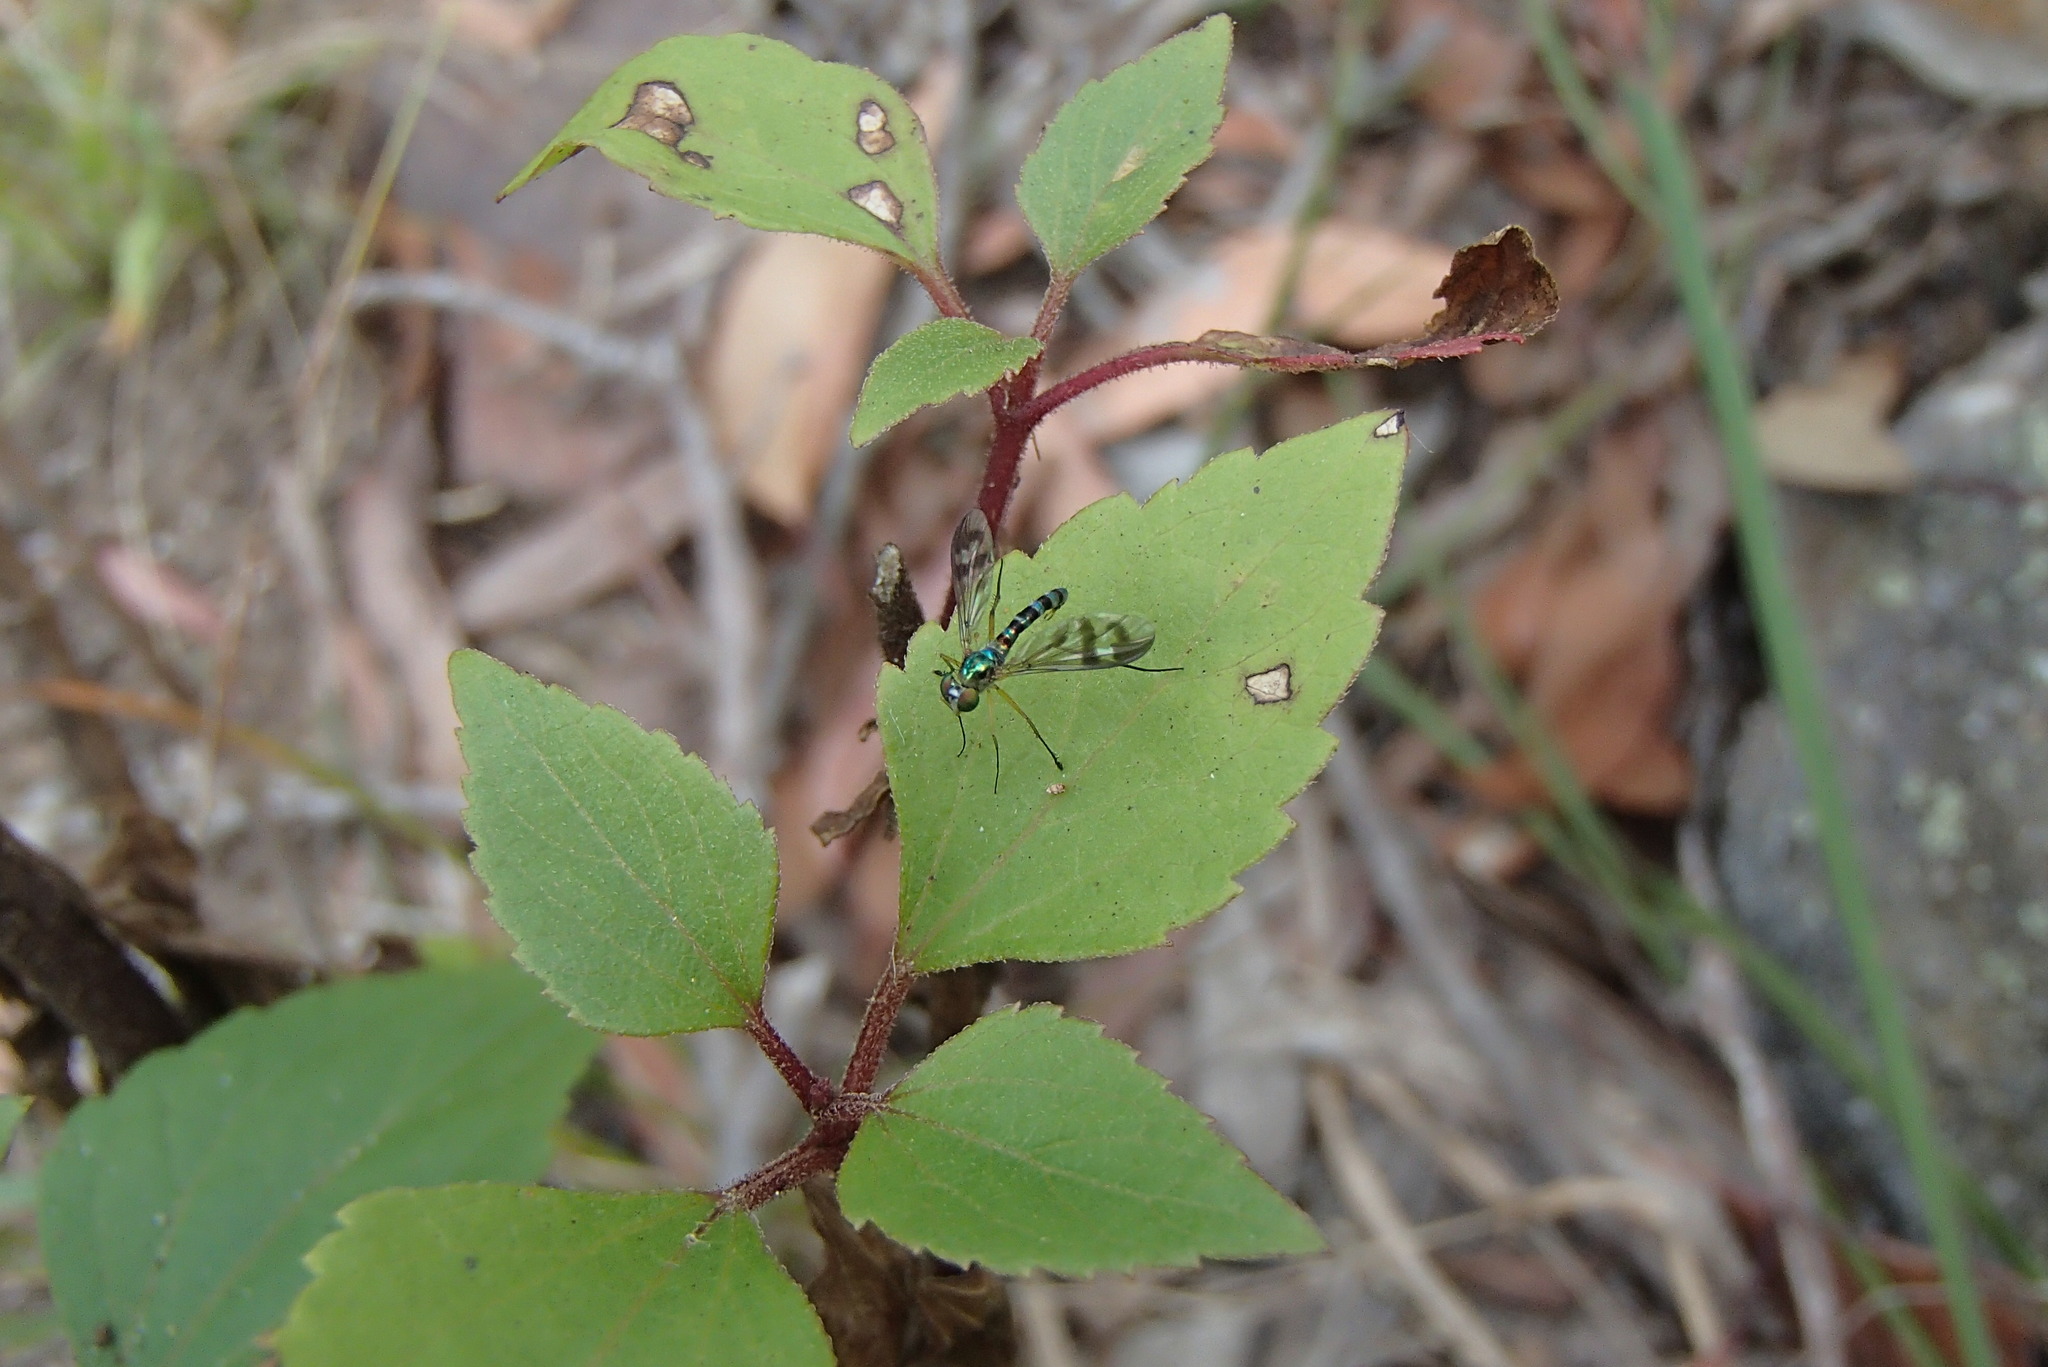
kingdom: Animalia
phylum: Arthropoda
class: Insecta
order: Diptera
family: Dolichopodidae
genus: Heteropsilopus
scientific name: Heteropsilopus ingenuum
